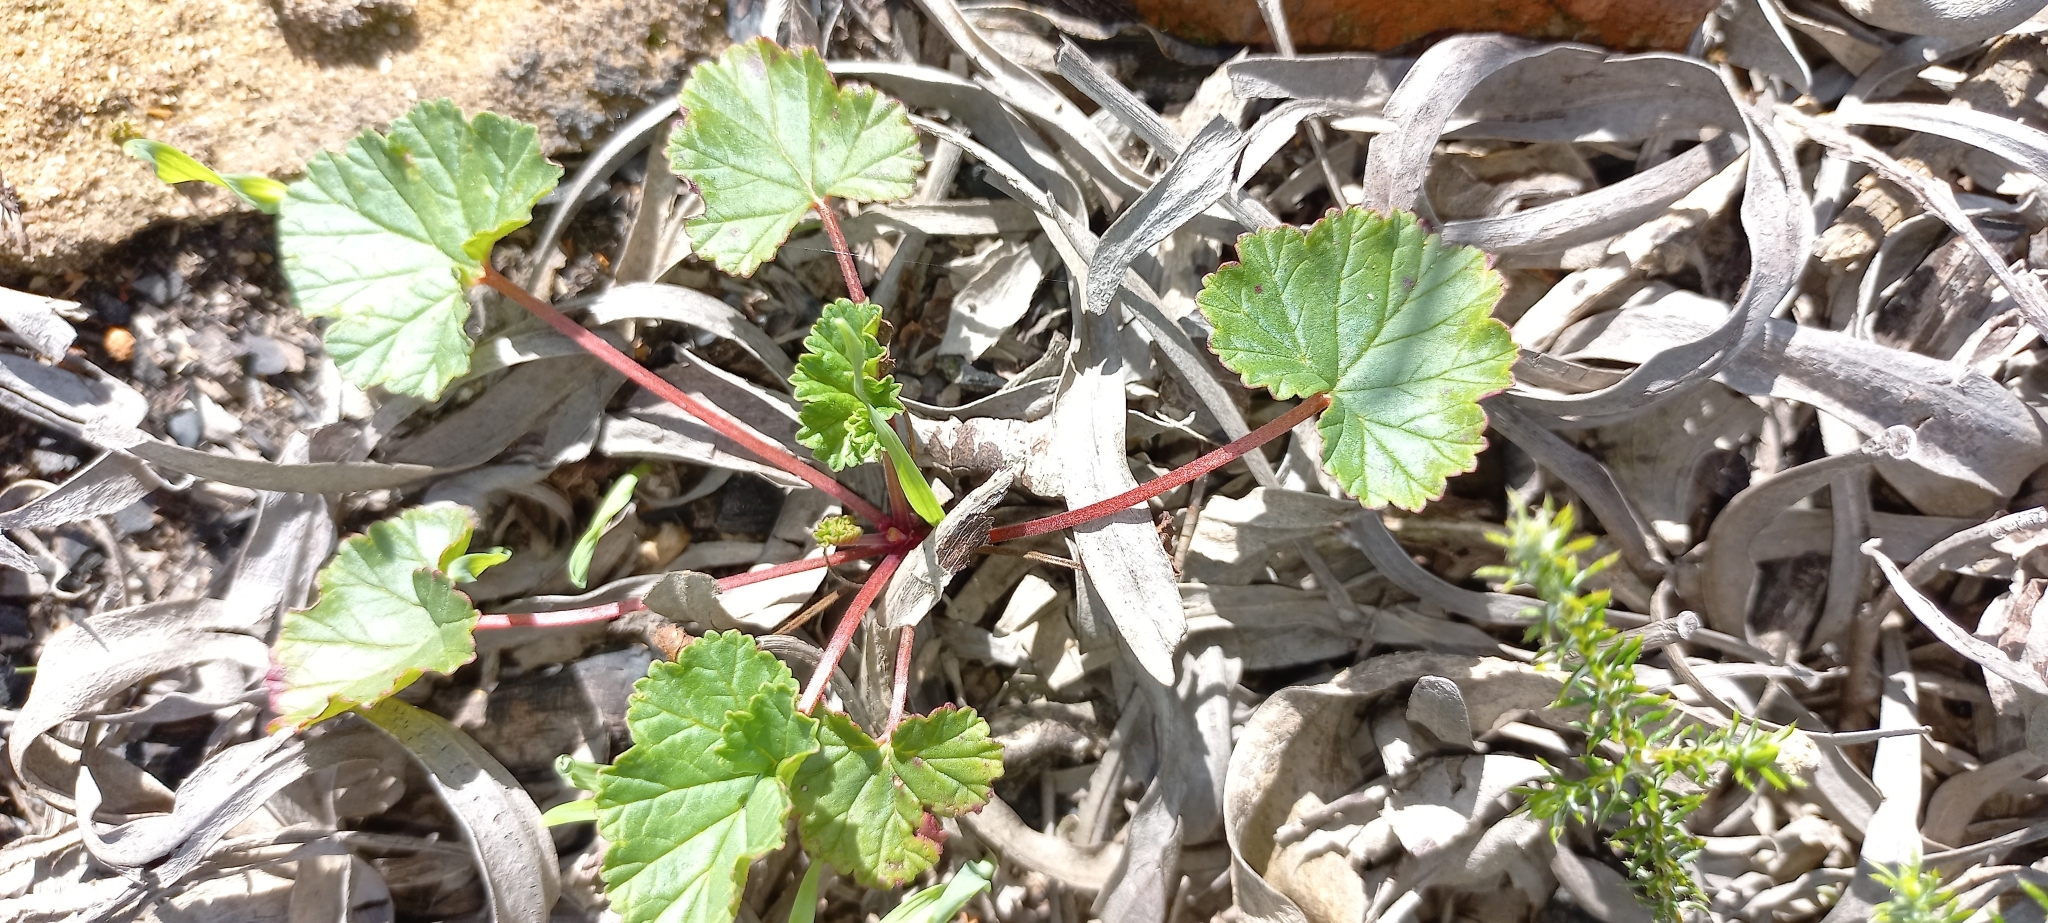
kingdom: Plantae
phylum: Tracheophyta
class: Magnoliopsida
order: Geraniales
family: Geraniaceae
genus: Pelargonium
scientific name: Pelargonium grossularioides
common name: Gooseberry geranium
